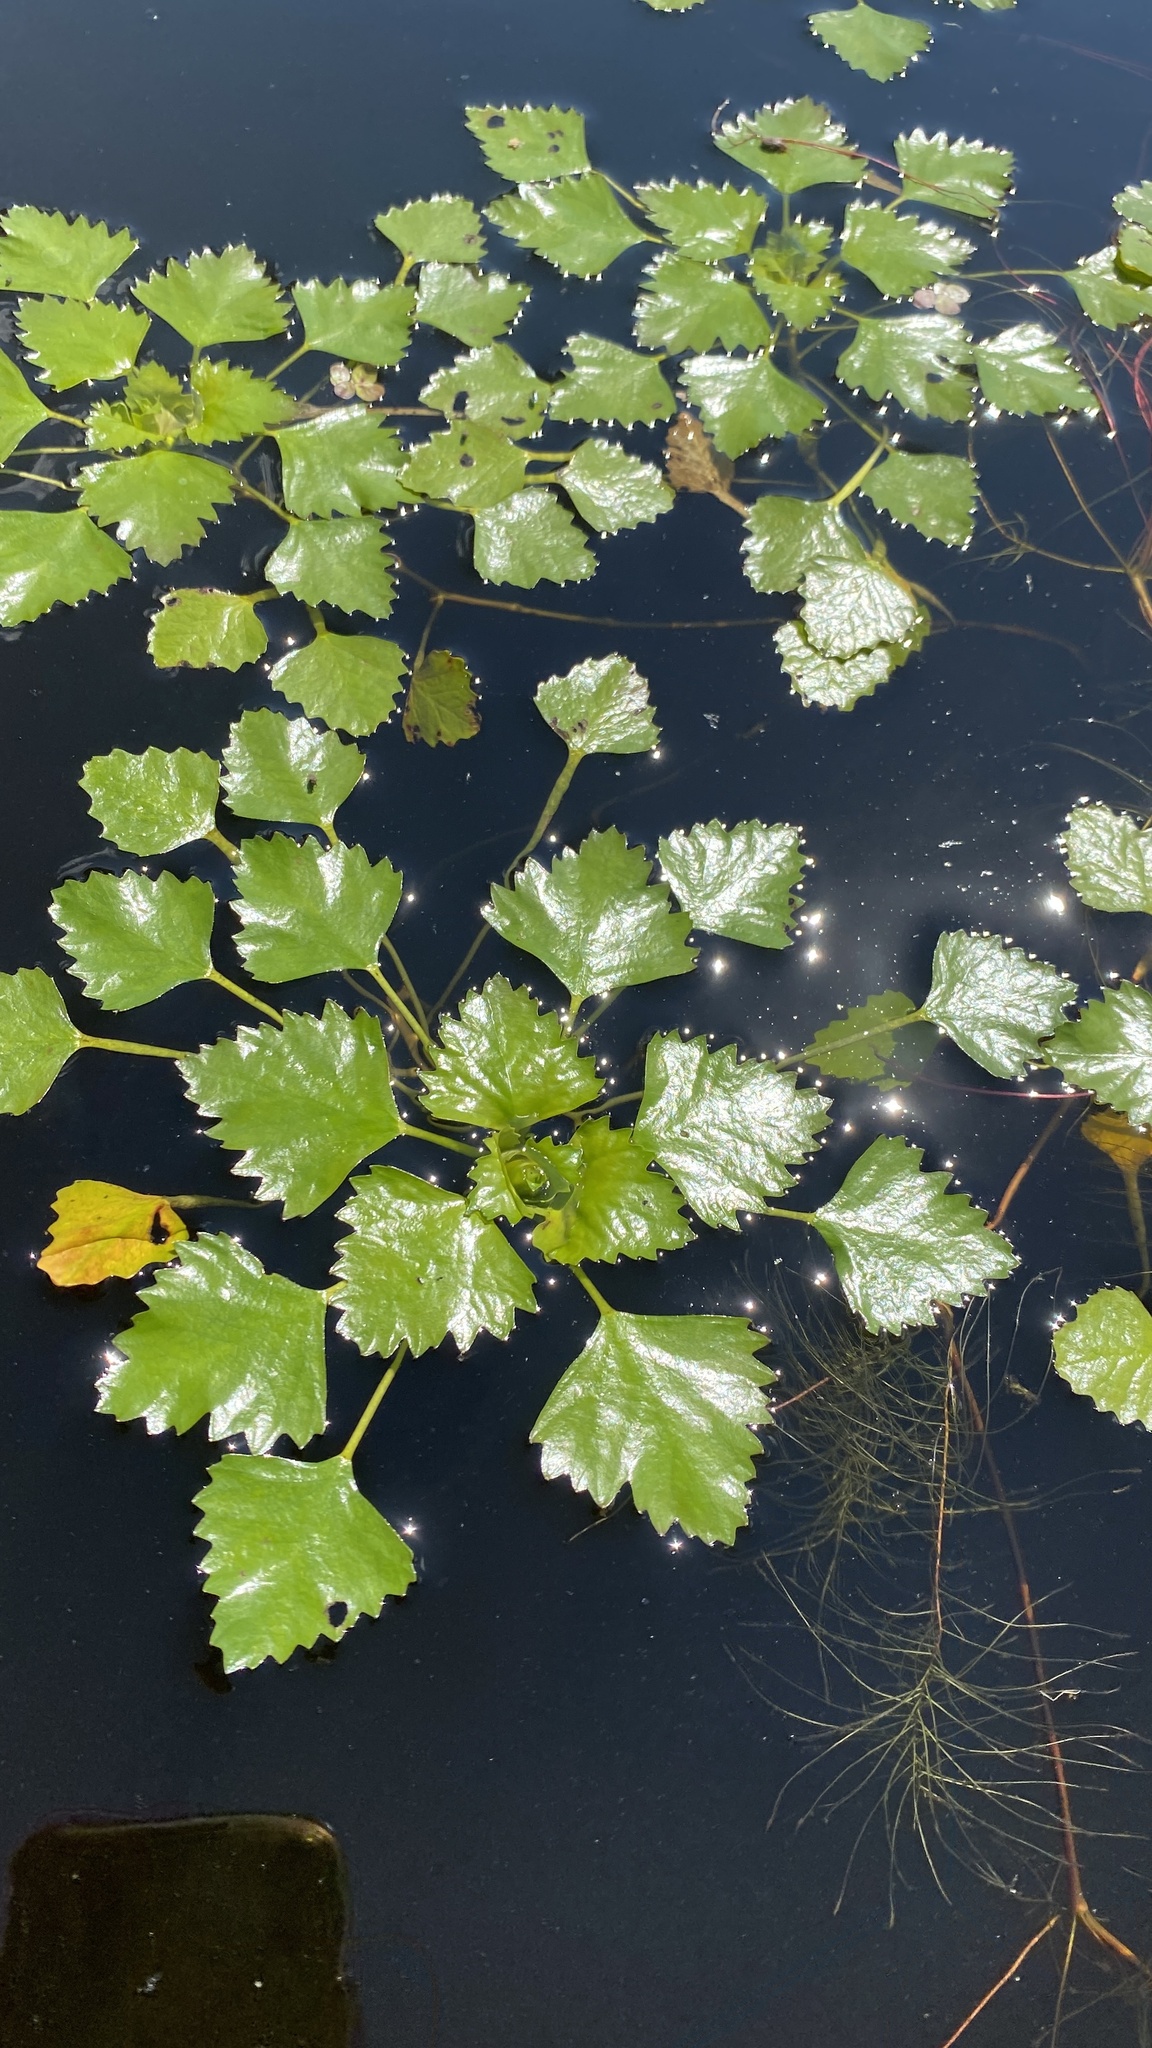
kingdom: Plantae
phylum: Tracheophyta
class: Magnoliopsida
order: Myrtales
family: Lythraceae
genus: Trapa
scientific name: Trapa natans
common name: Water chestnut
